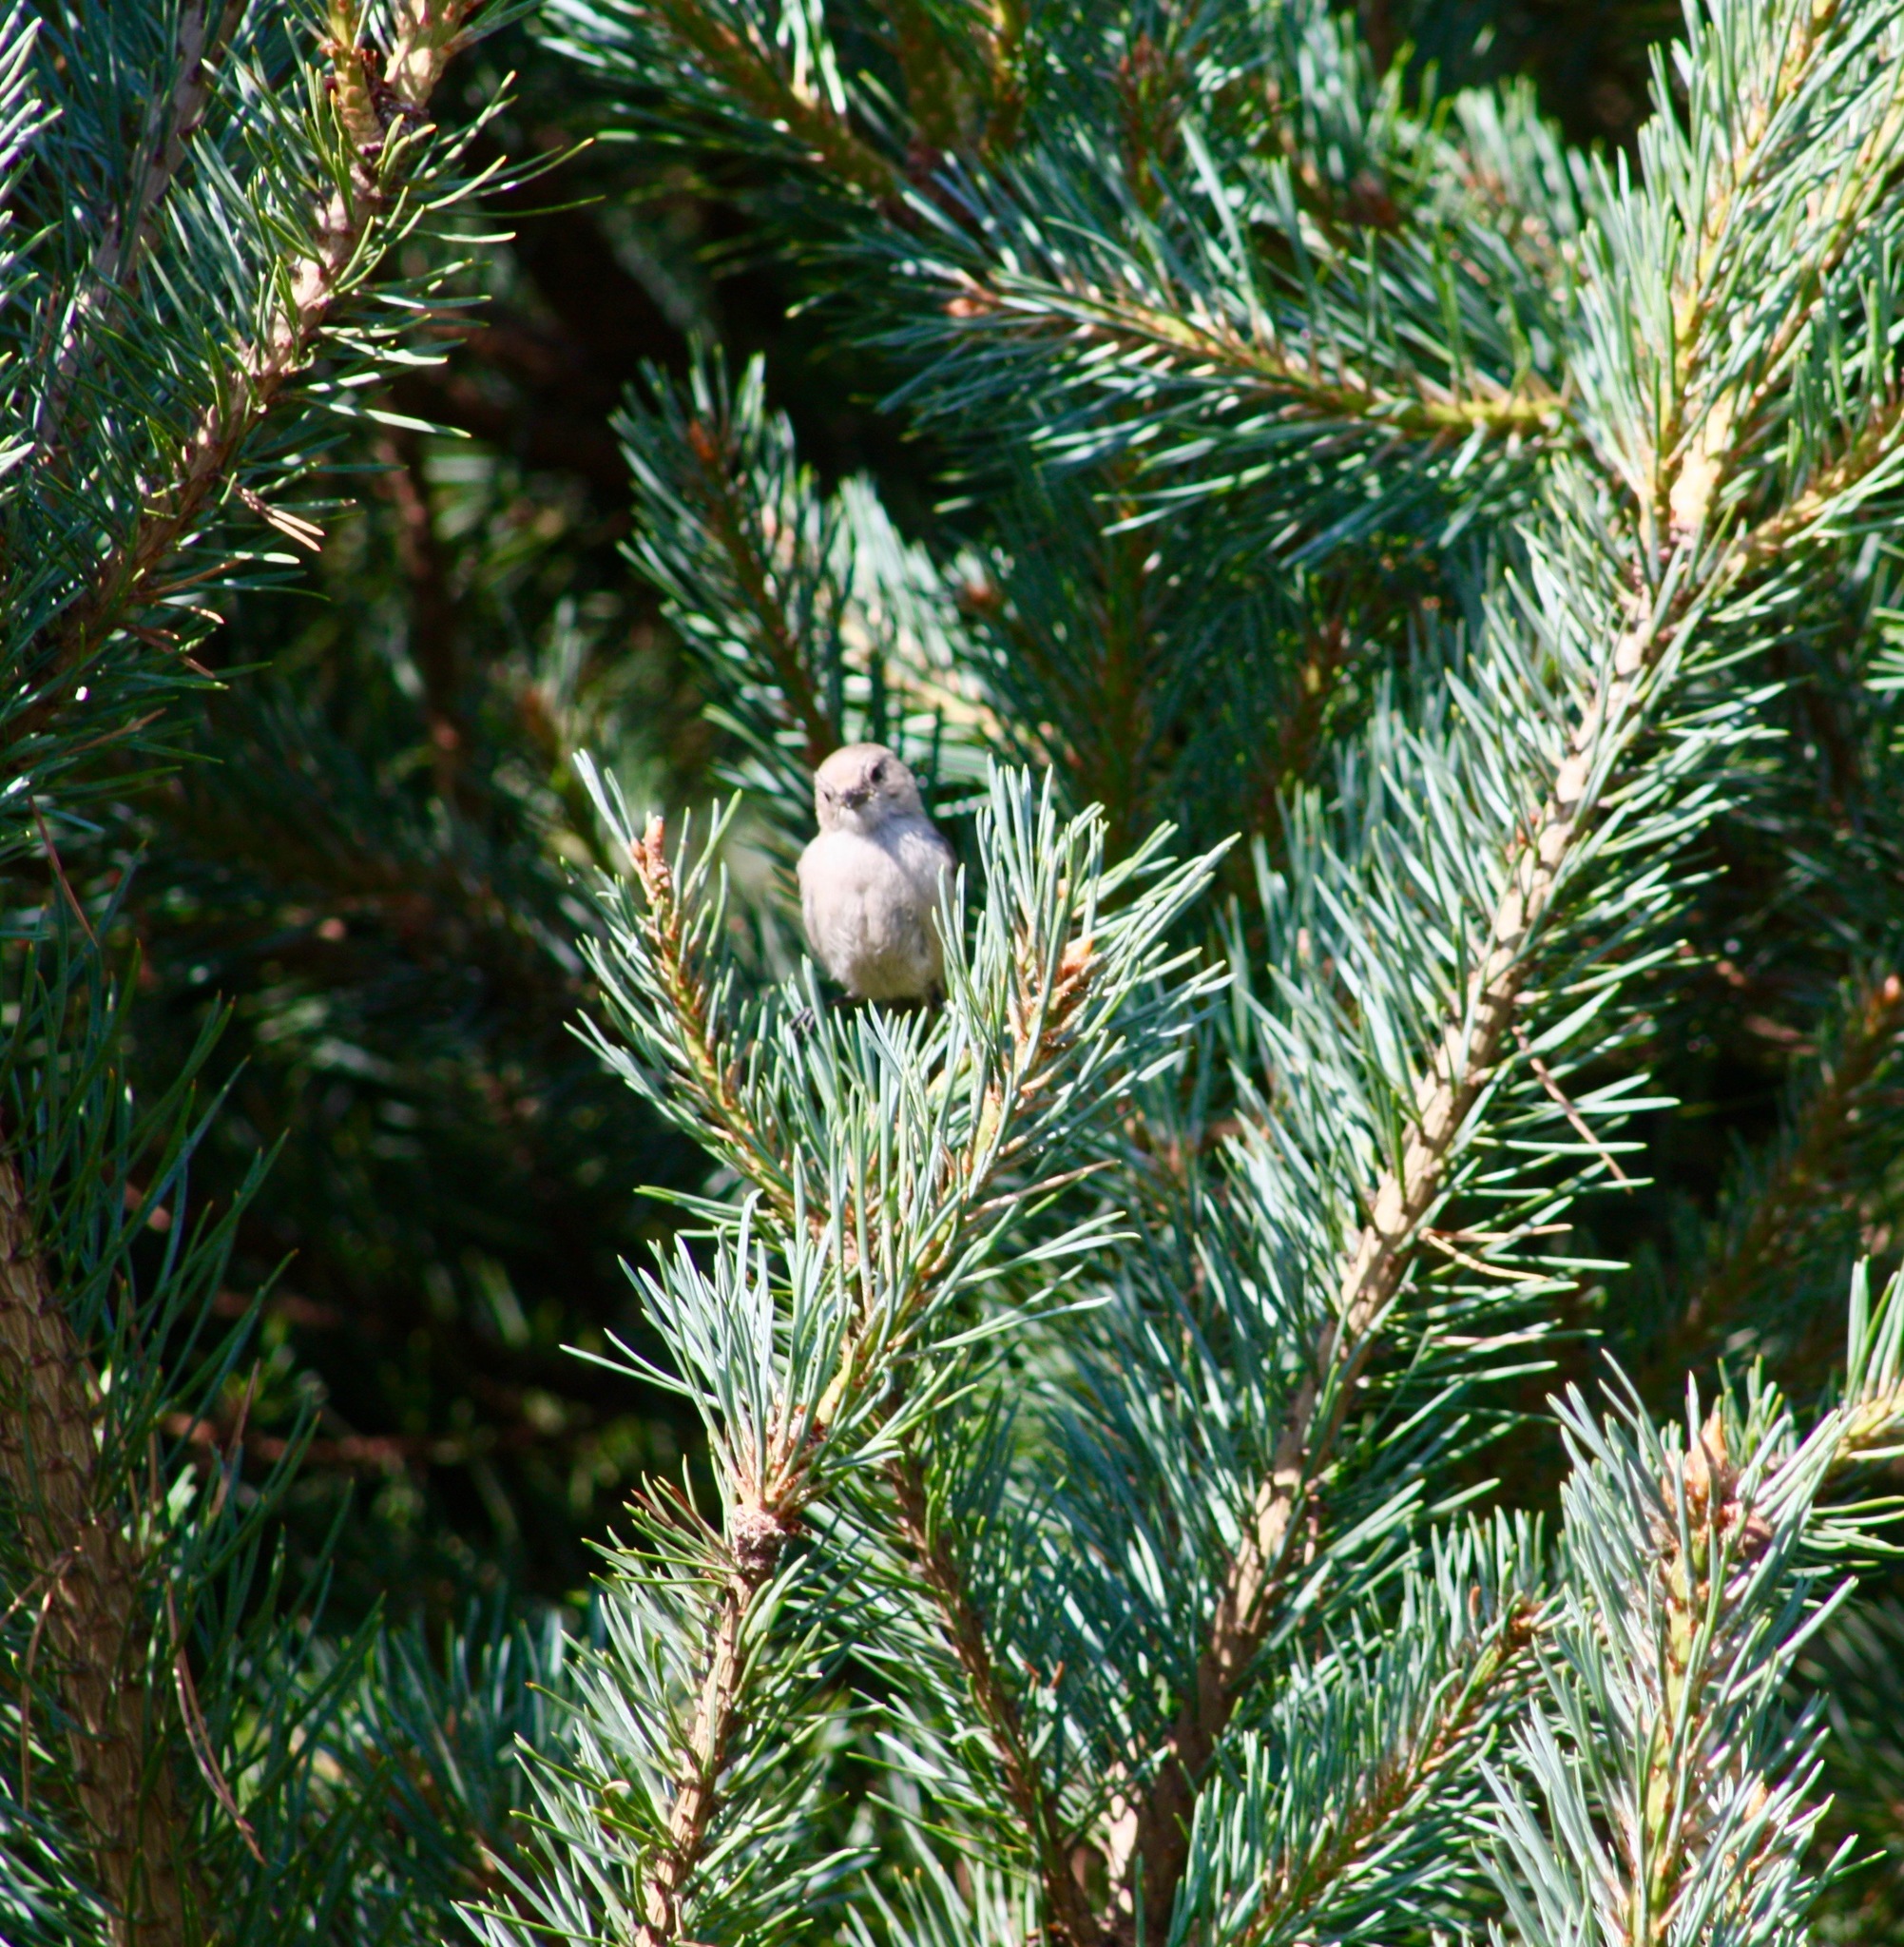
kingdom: Animalia
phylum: Chordata
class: Aves
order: Passeriformes
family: Aegithalidae
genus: Psaltriparus
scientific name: Psaltriparus minimus
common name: American bushtit
